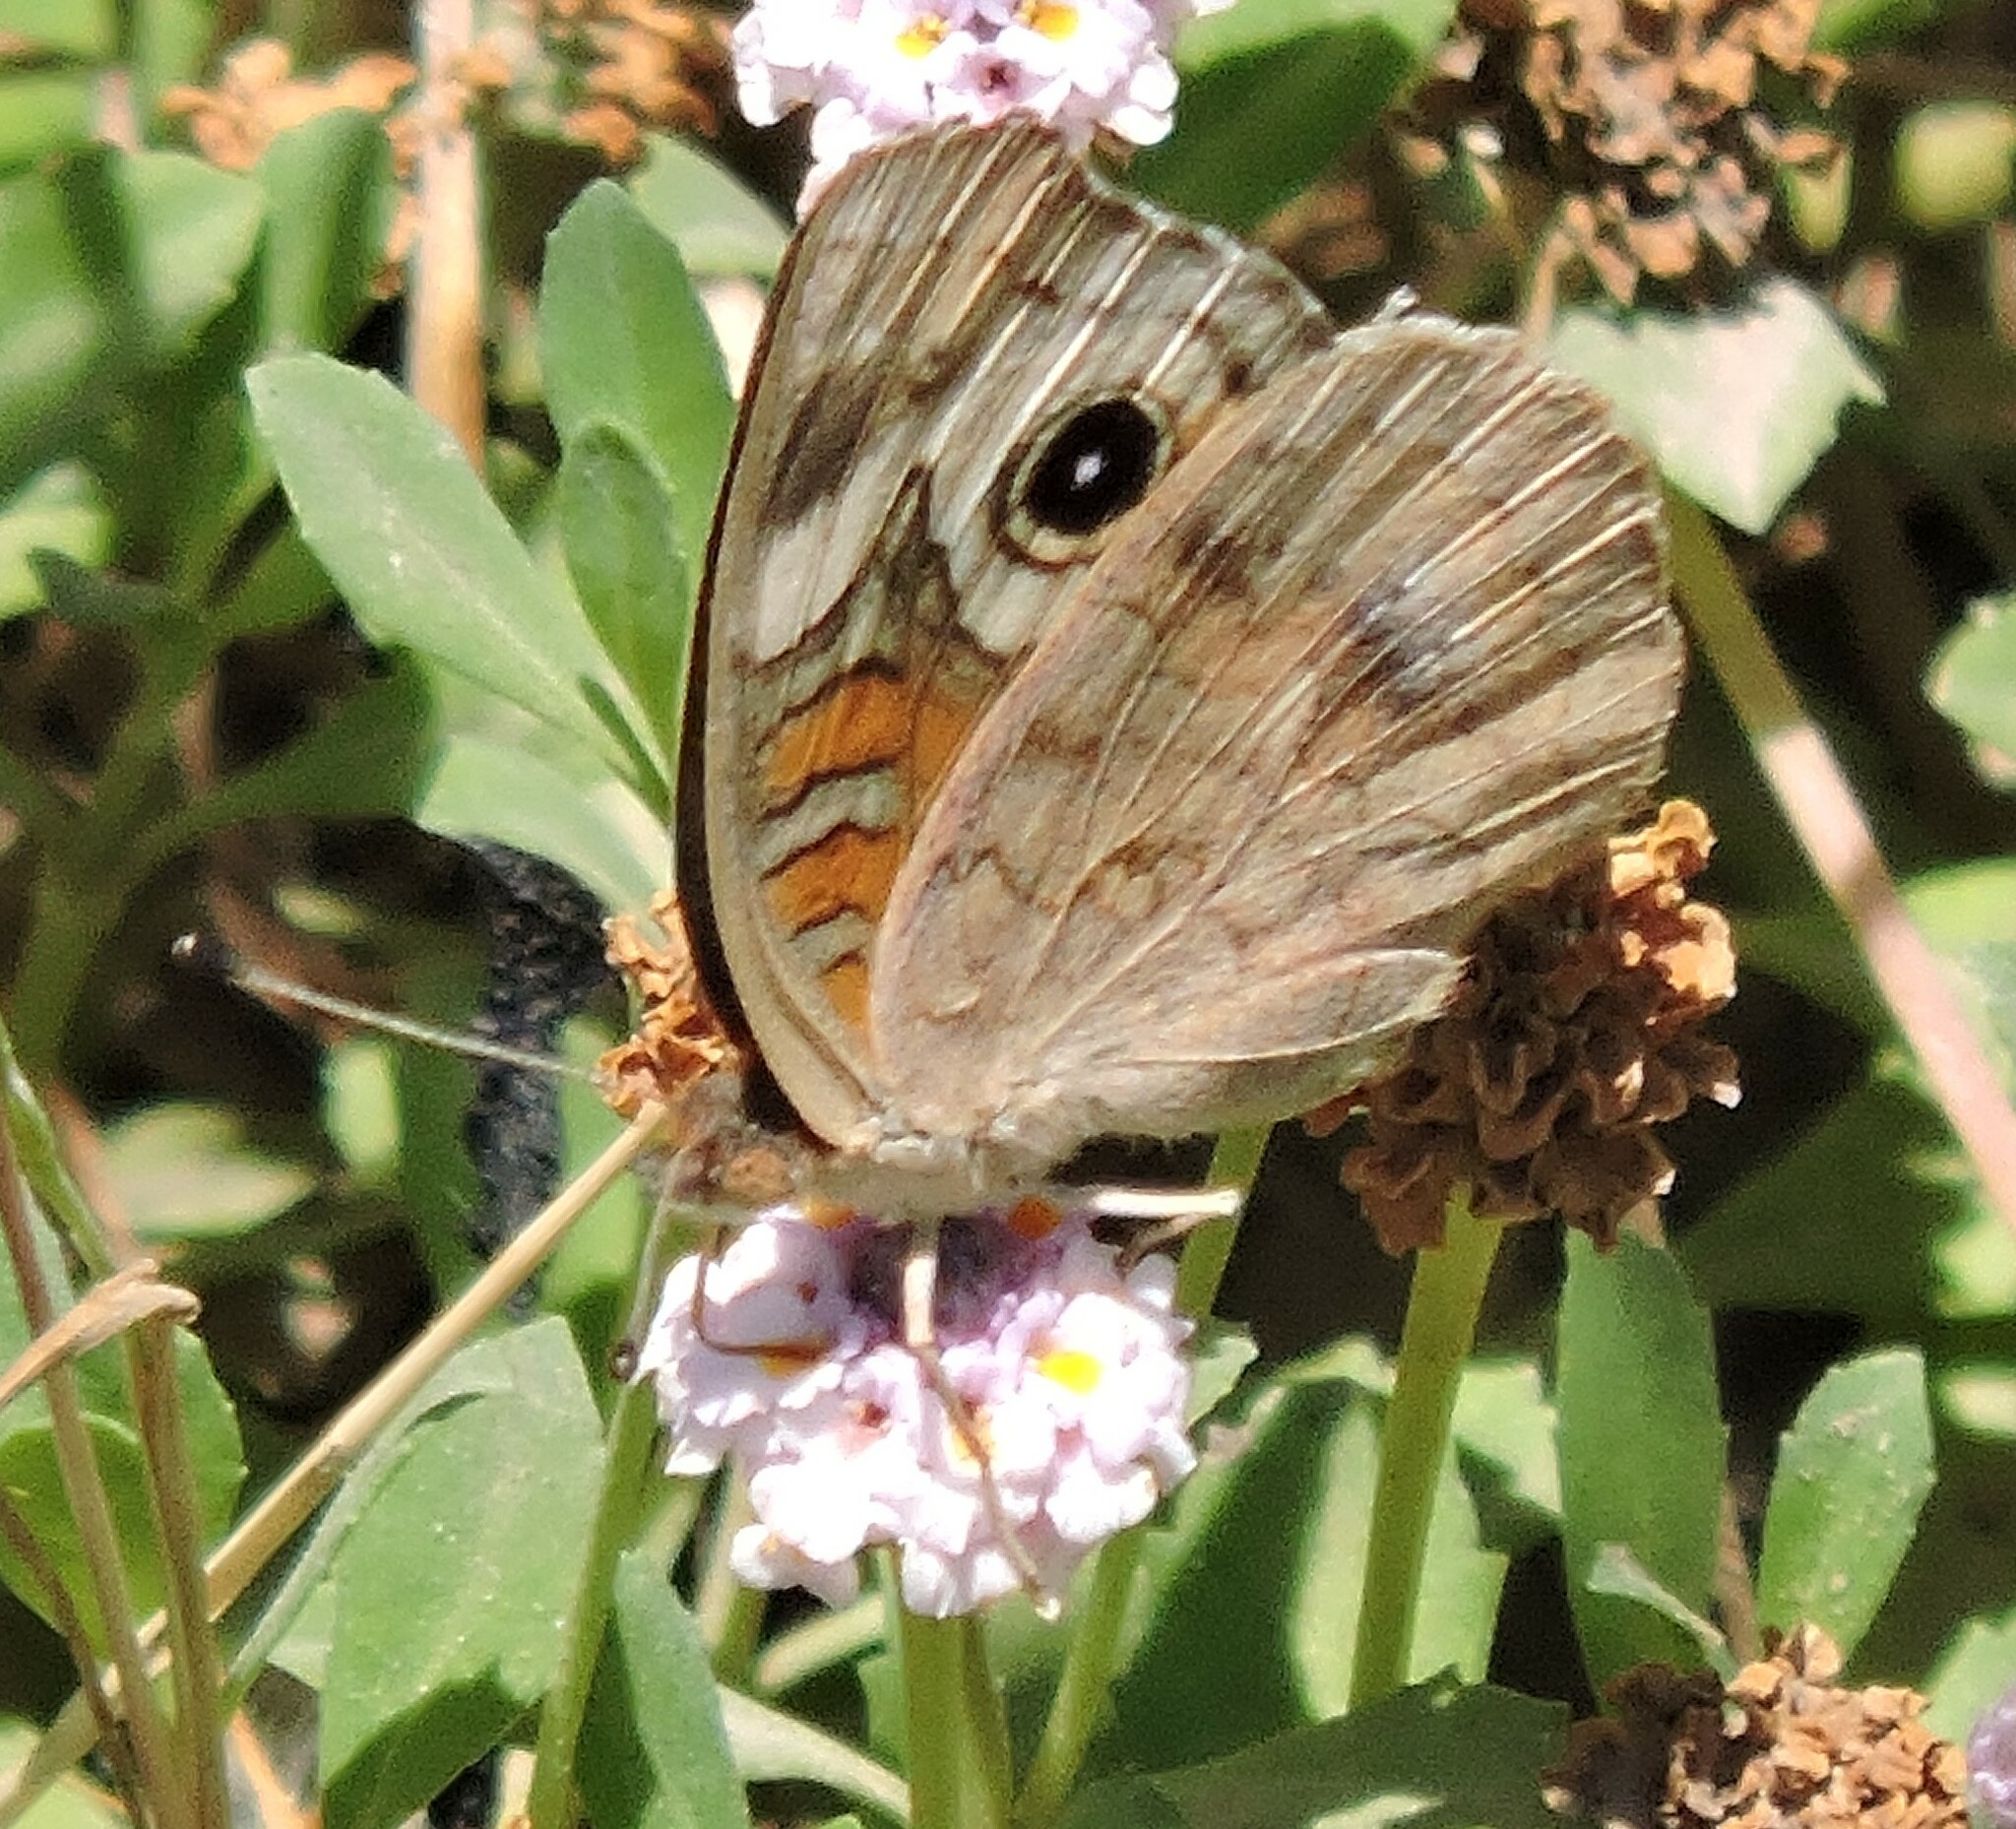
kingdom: Animalia
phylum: Arthropoda
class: Insecta
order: Lepidoptera
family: Nymphalidae
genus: Junonia
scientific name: Junonia grisea
